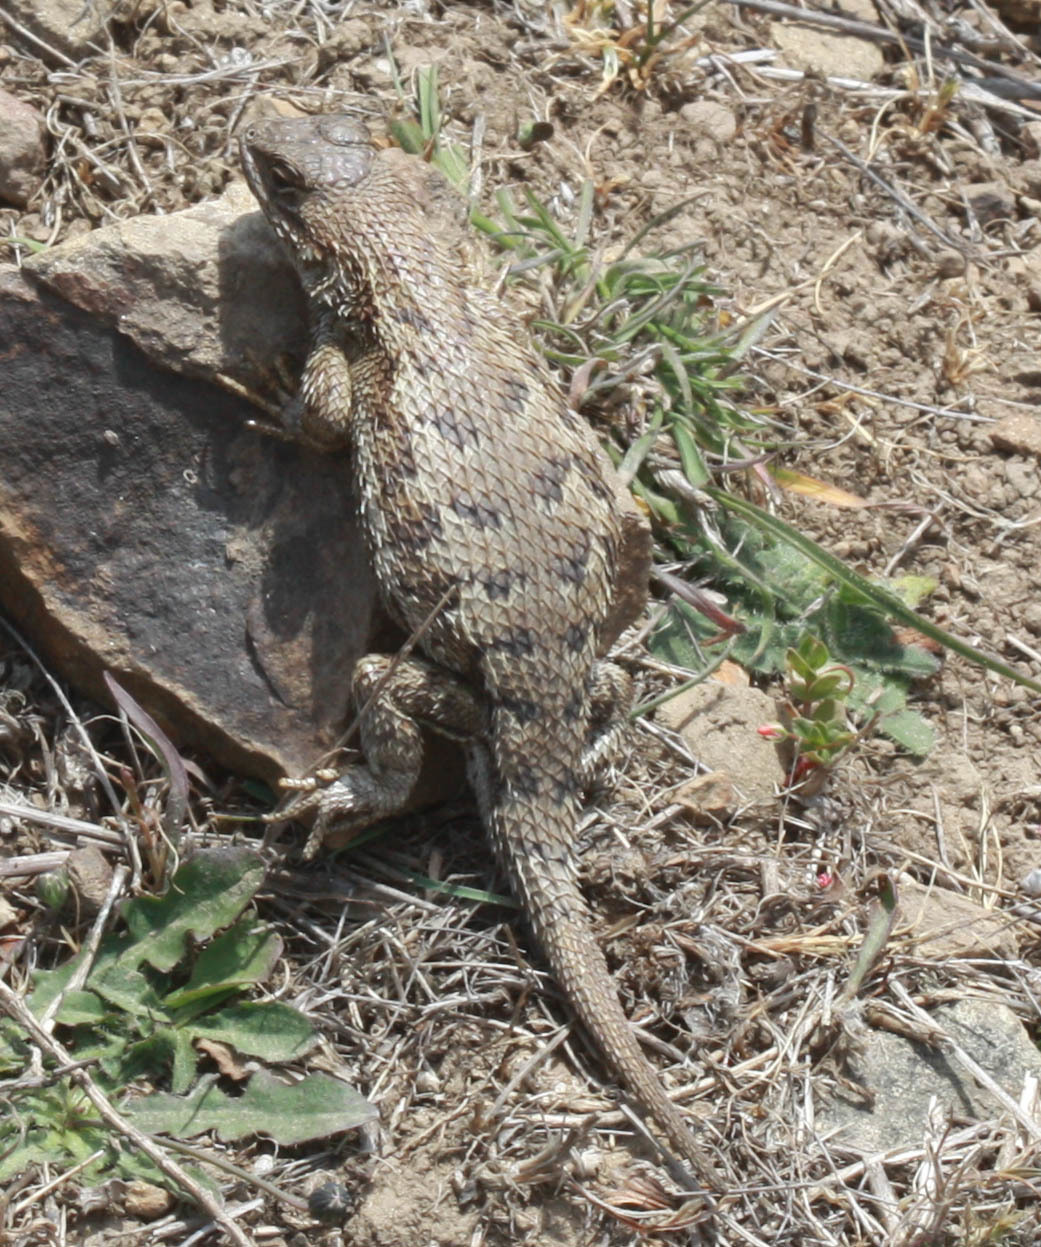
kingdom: Animalia
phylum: Chordata
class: Squamata
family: Phrynosomatidae
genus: Sceloporus
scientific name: Sceloporus occidentalis
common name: Western fence lizard
